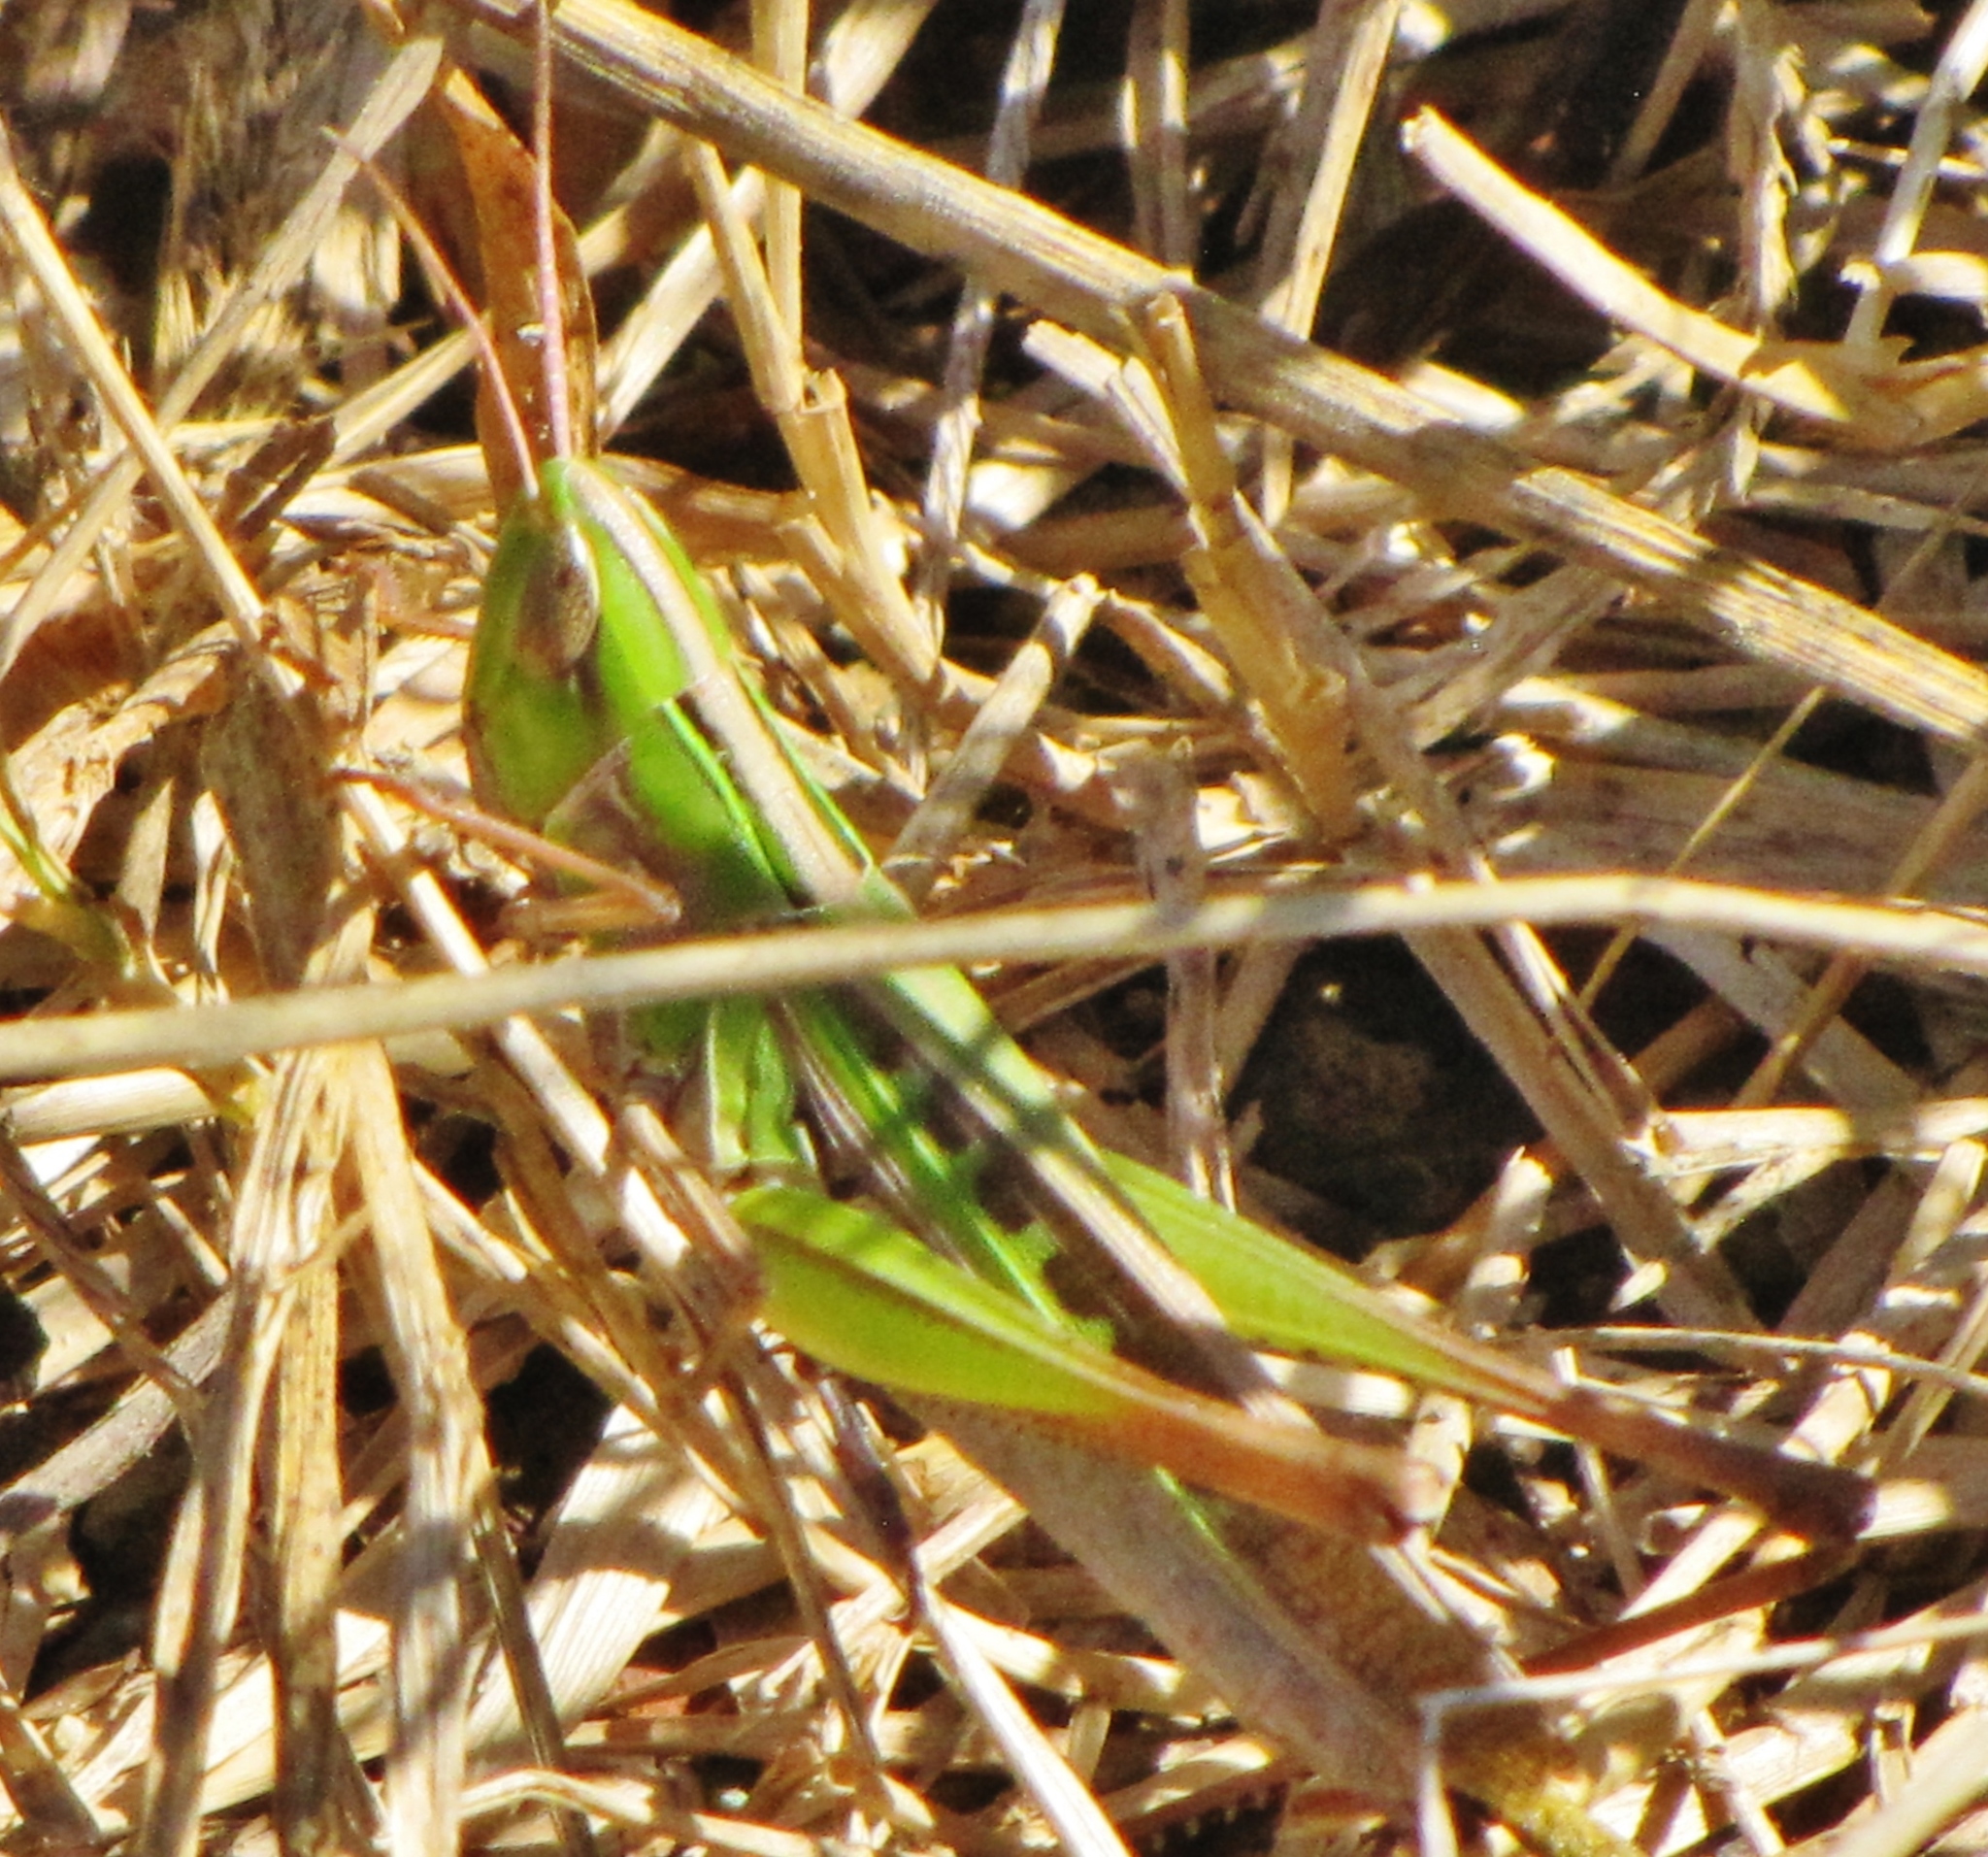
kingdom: Animalia
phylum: Arthropoda
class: Insecta
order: Orthoptera
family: Acrididae
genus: Syrbula
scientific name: Syrbula admirabilis
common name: Handsome grasshopper
